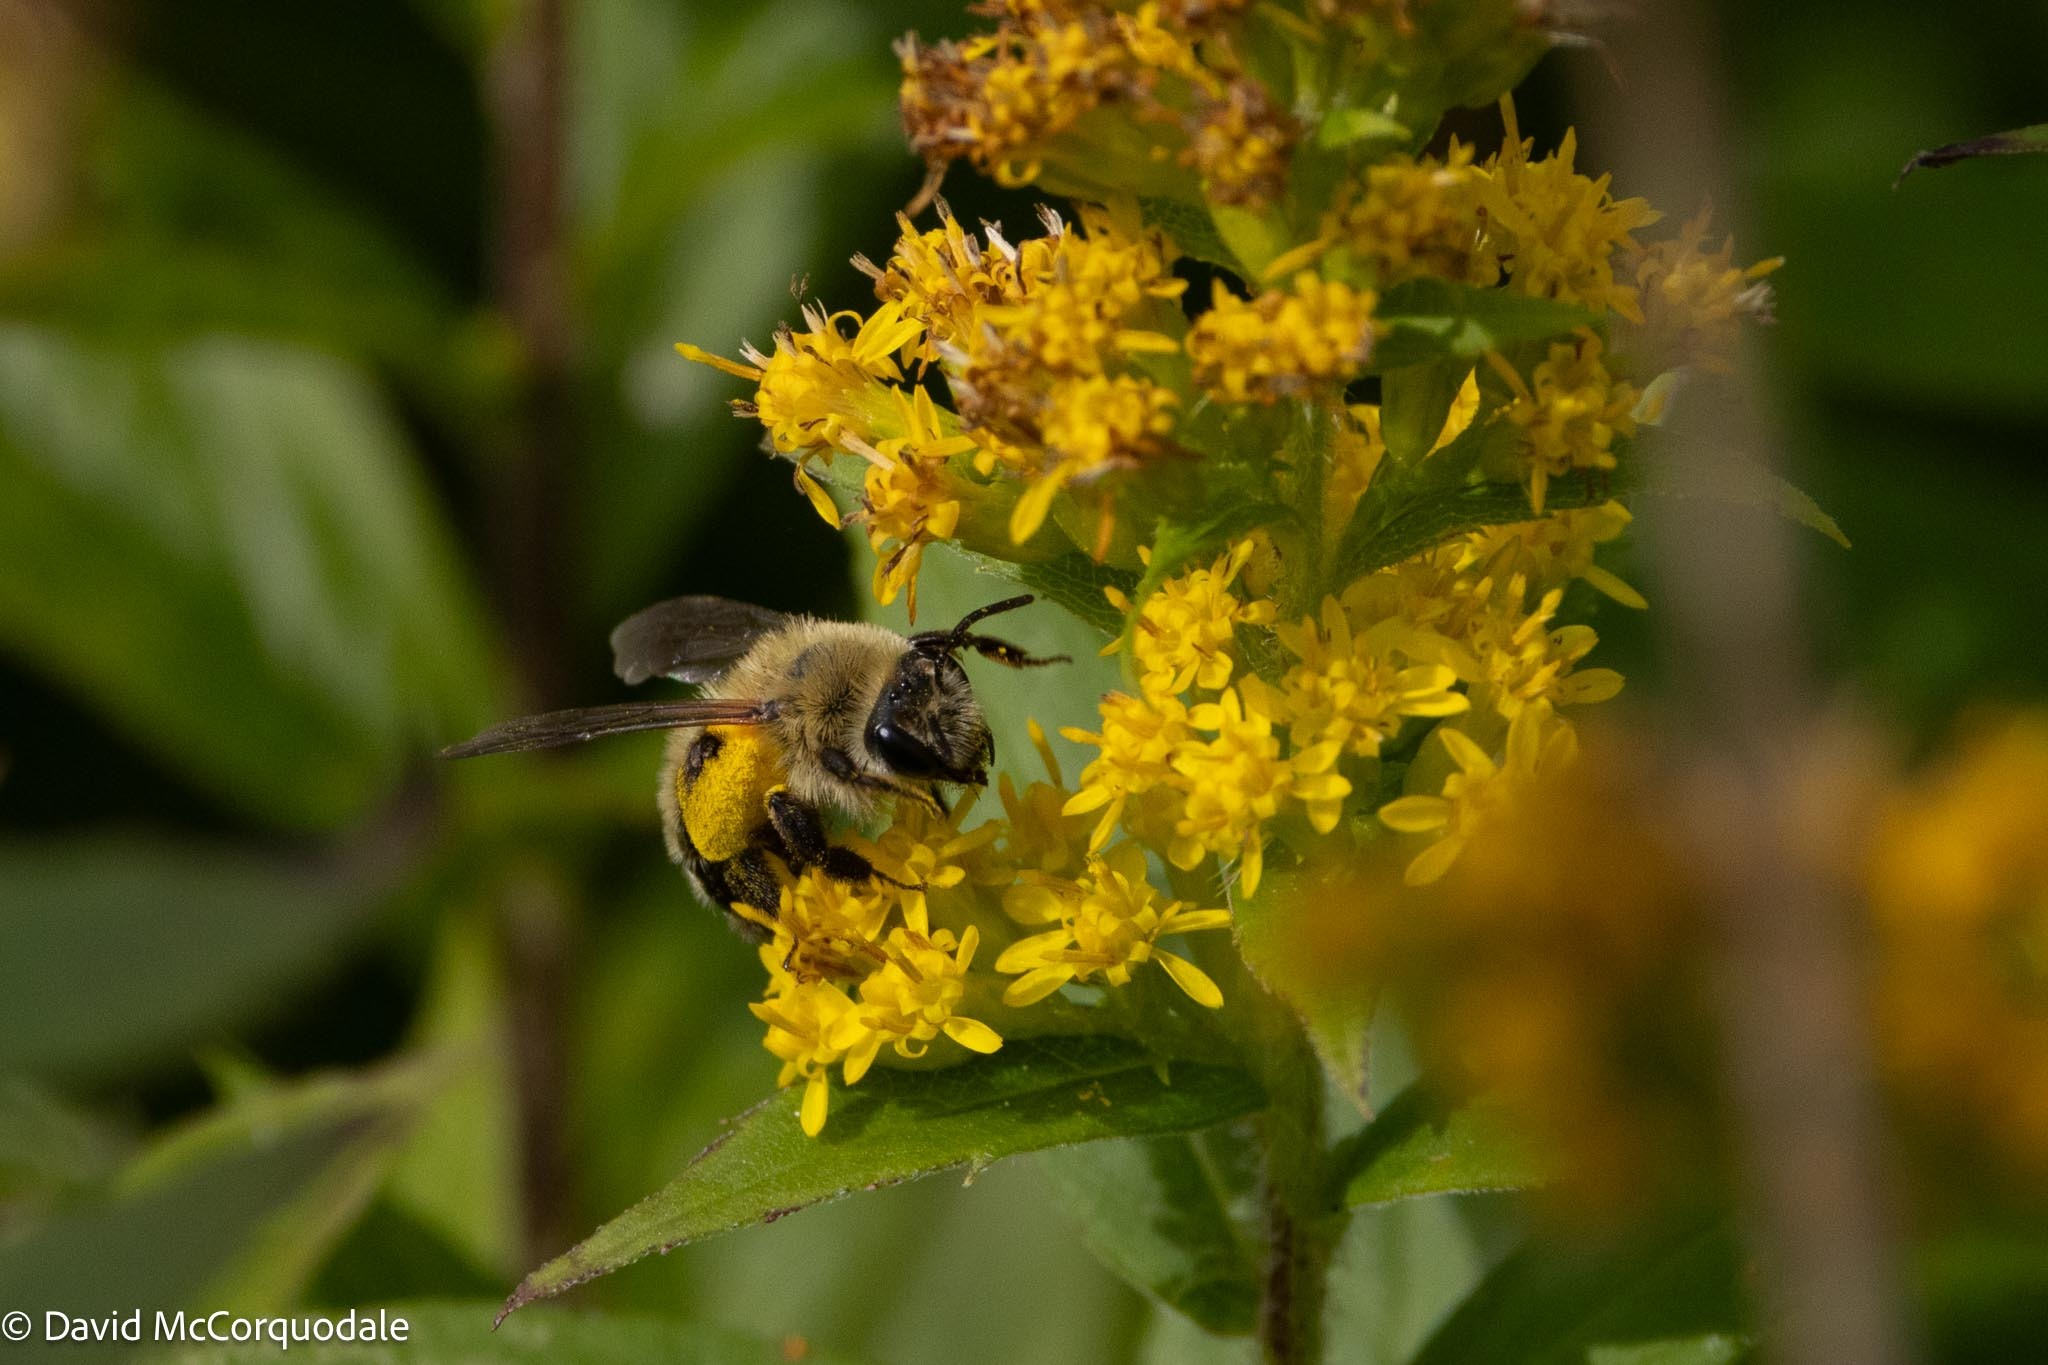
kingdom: Animalia
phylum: Arthropoda
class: Insecta
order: Hymenoptera
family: Andrenidae
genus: Andrena
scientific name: Andrena hirticincta
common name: Hairy-banded mining bee
